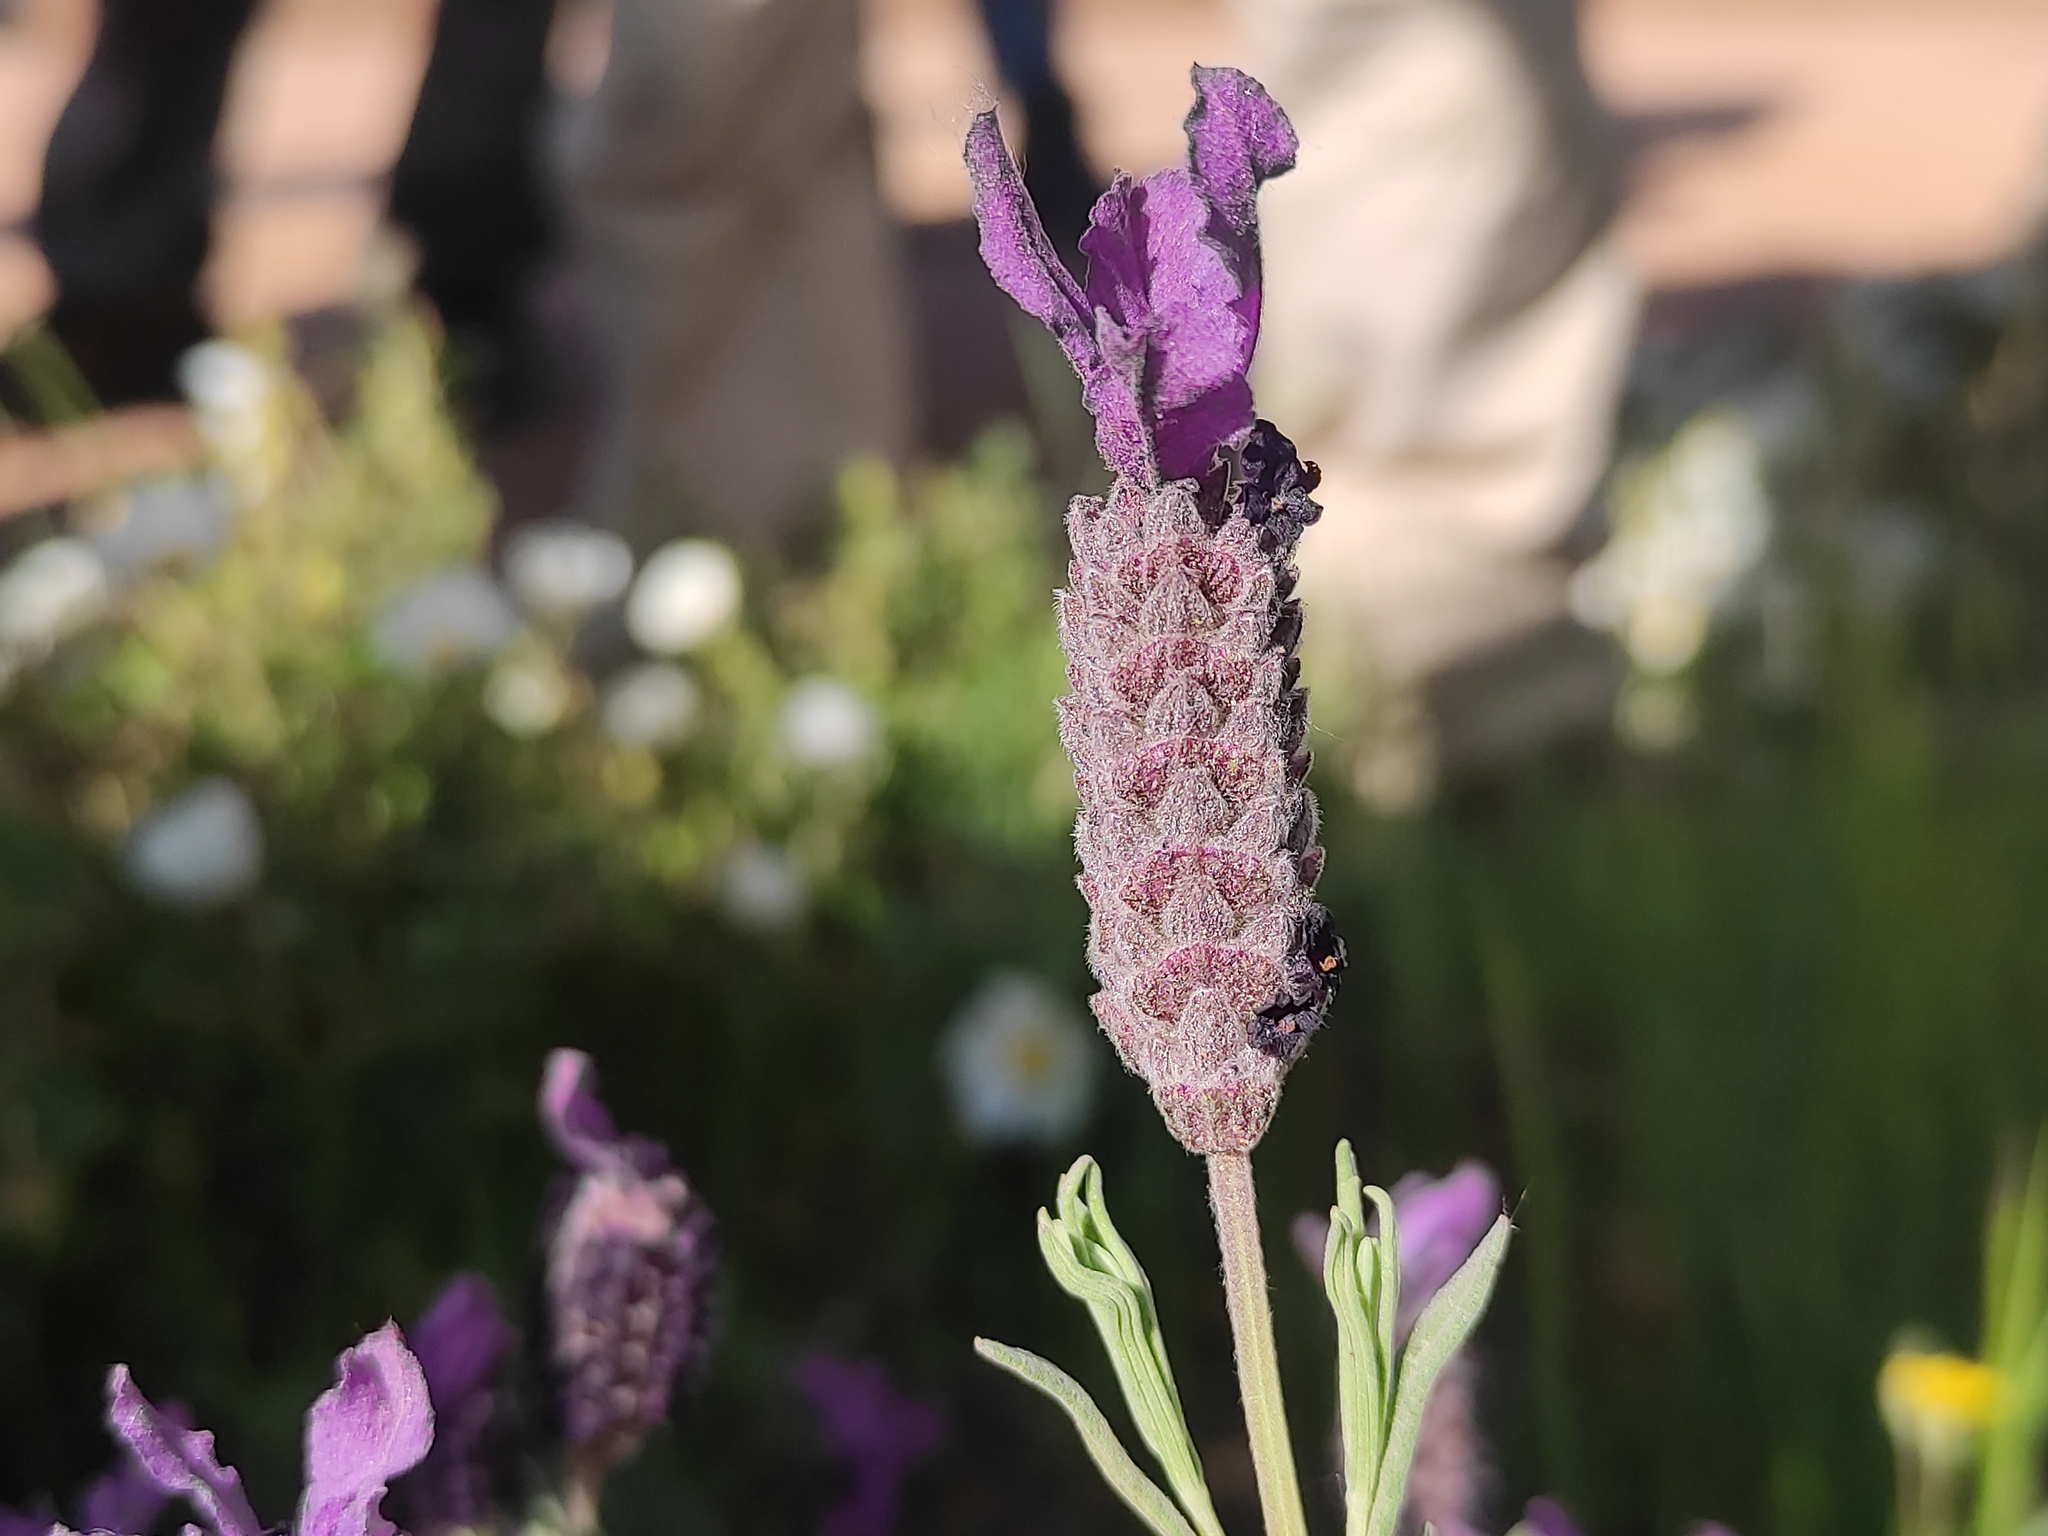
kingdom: Plantae
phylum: Tracheophyta
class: Magnoliopsida
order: Lamiales
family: Lamiaceae
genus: Lavandula
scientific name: Lavandula stoechas
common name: French lavender
